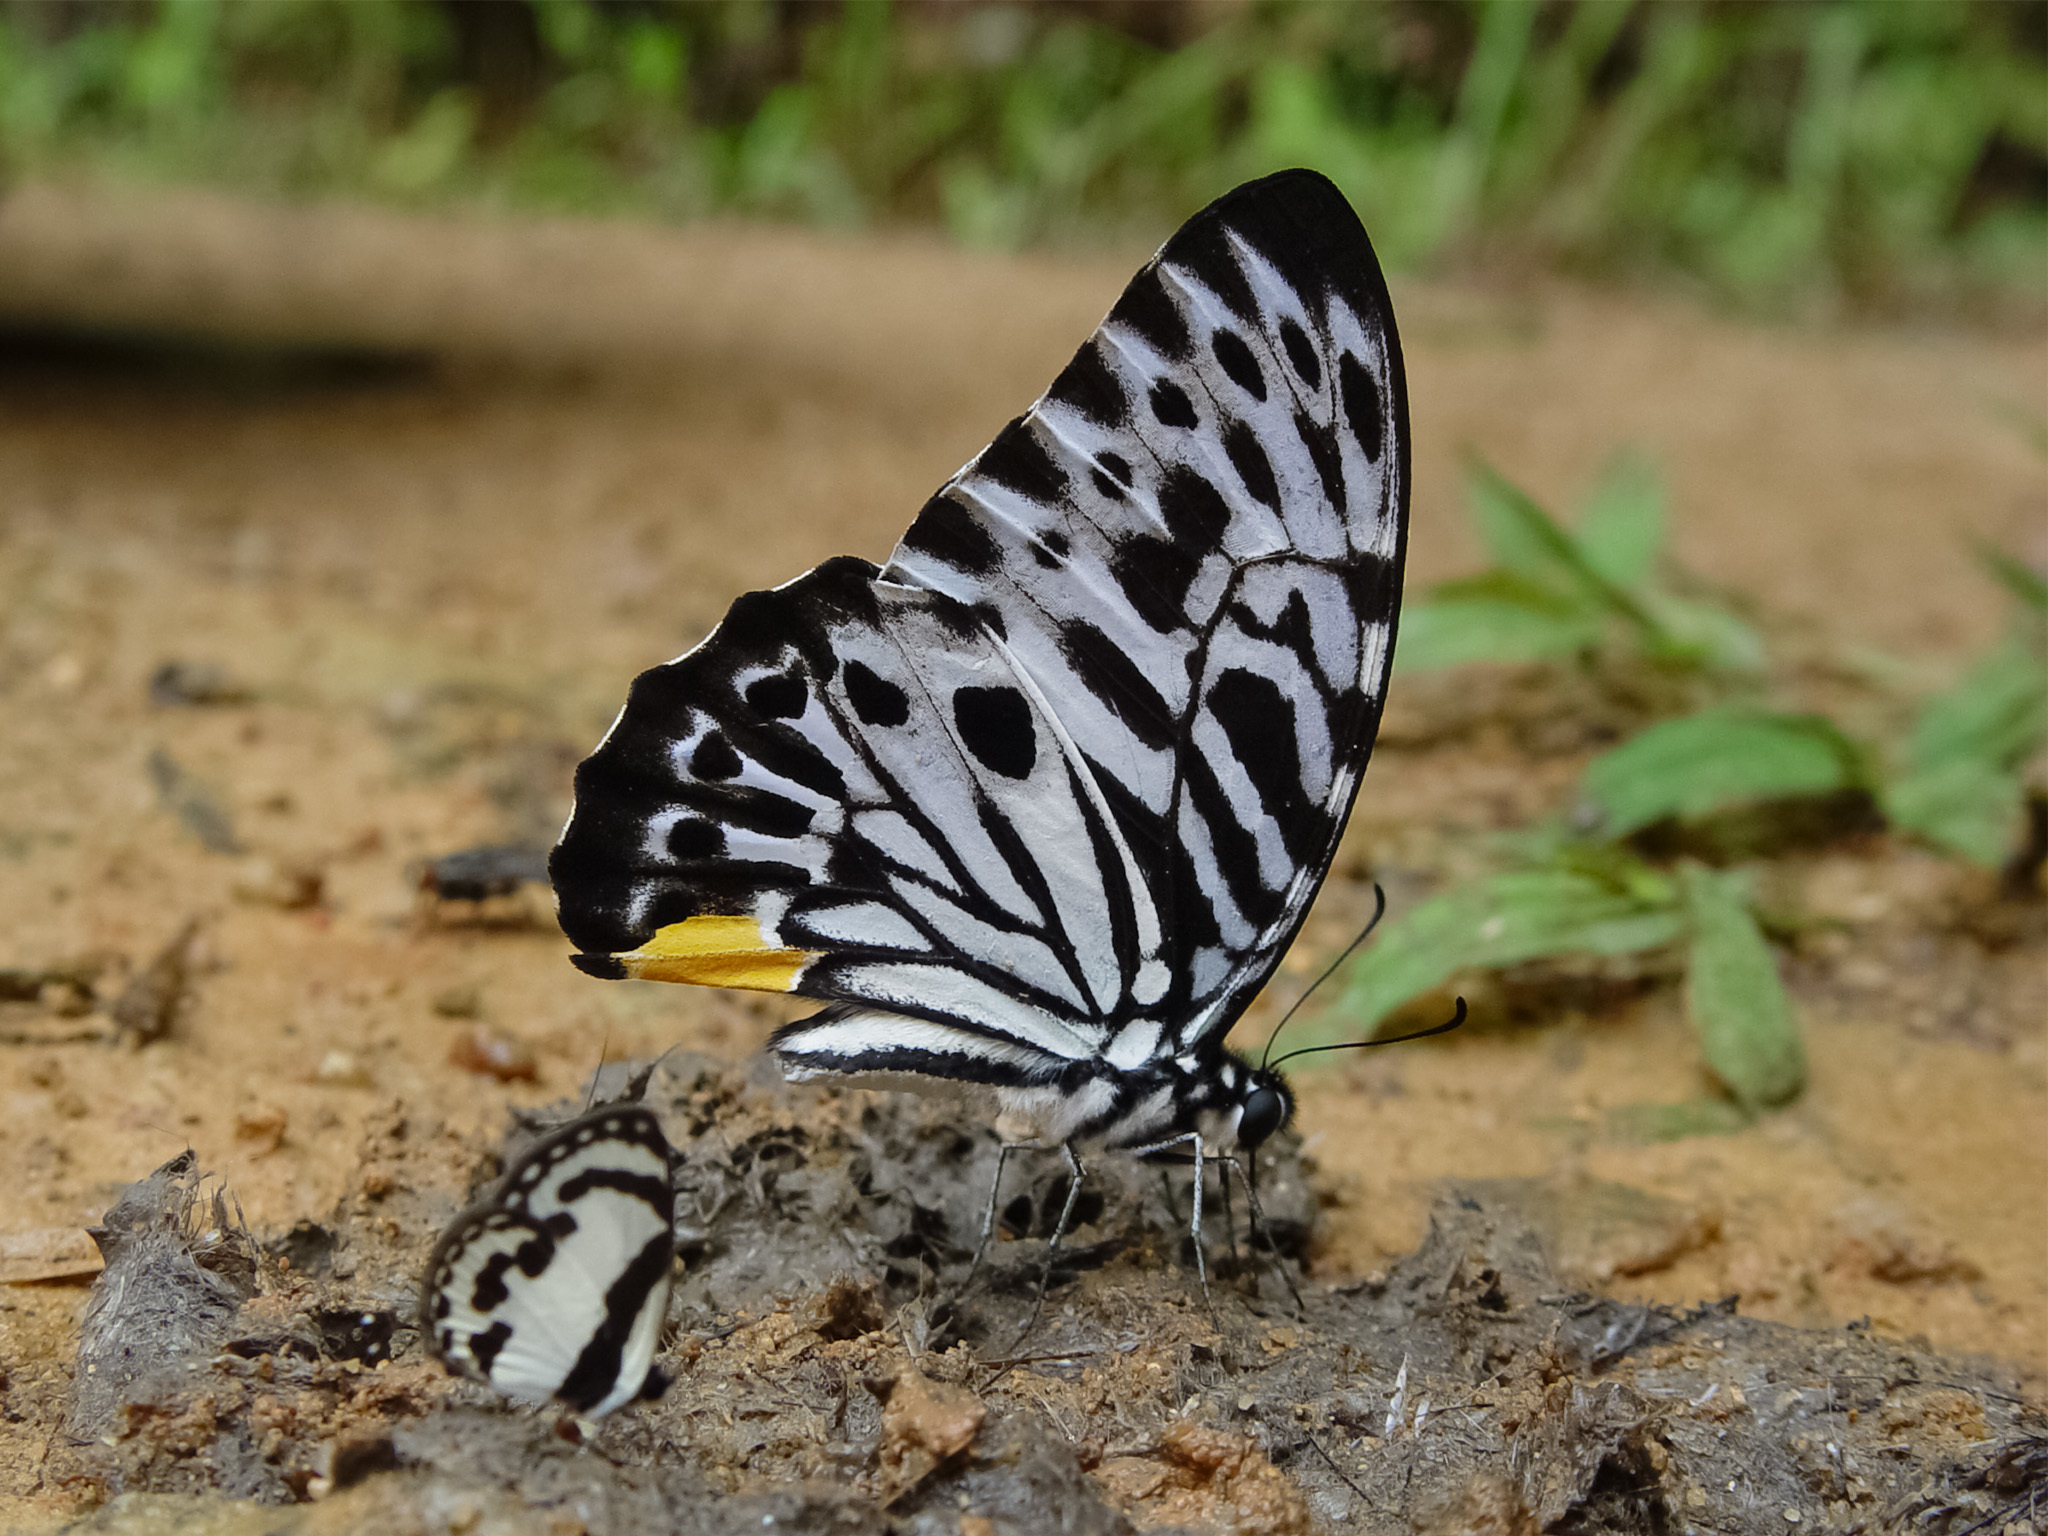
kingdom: Animalia
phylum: Arthropoda
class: Insecta
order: Lepidoptera
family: Papilionidae
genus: Graphium
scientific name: Graphium delesserti
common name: Malayan zebra
